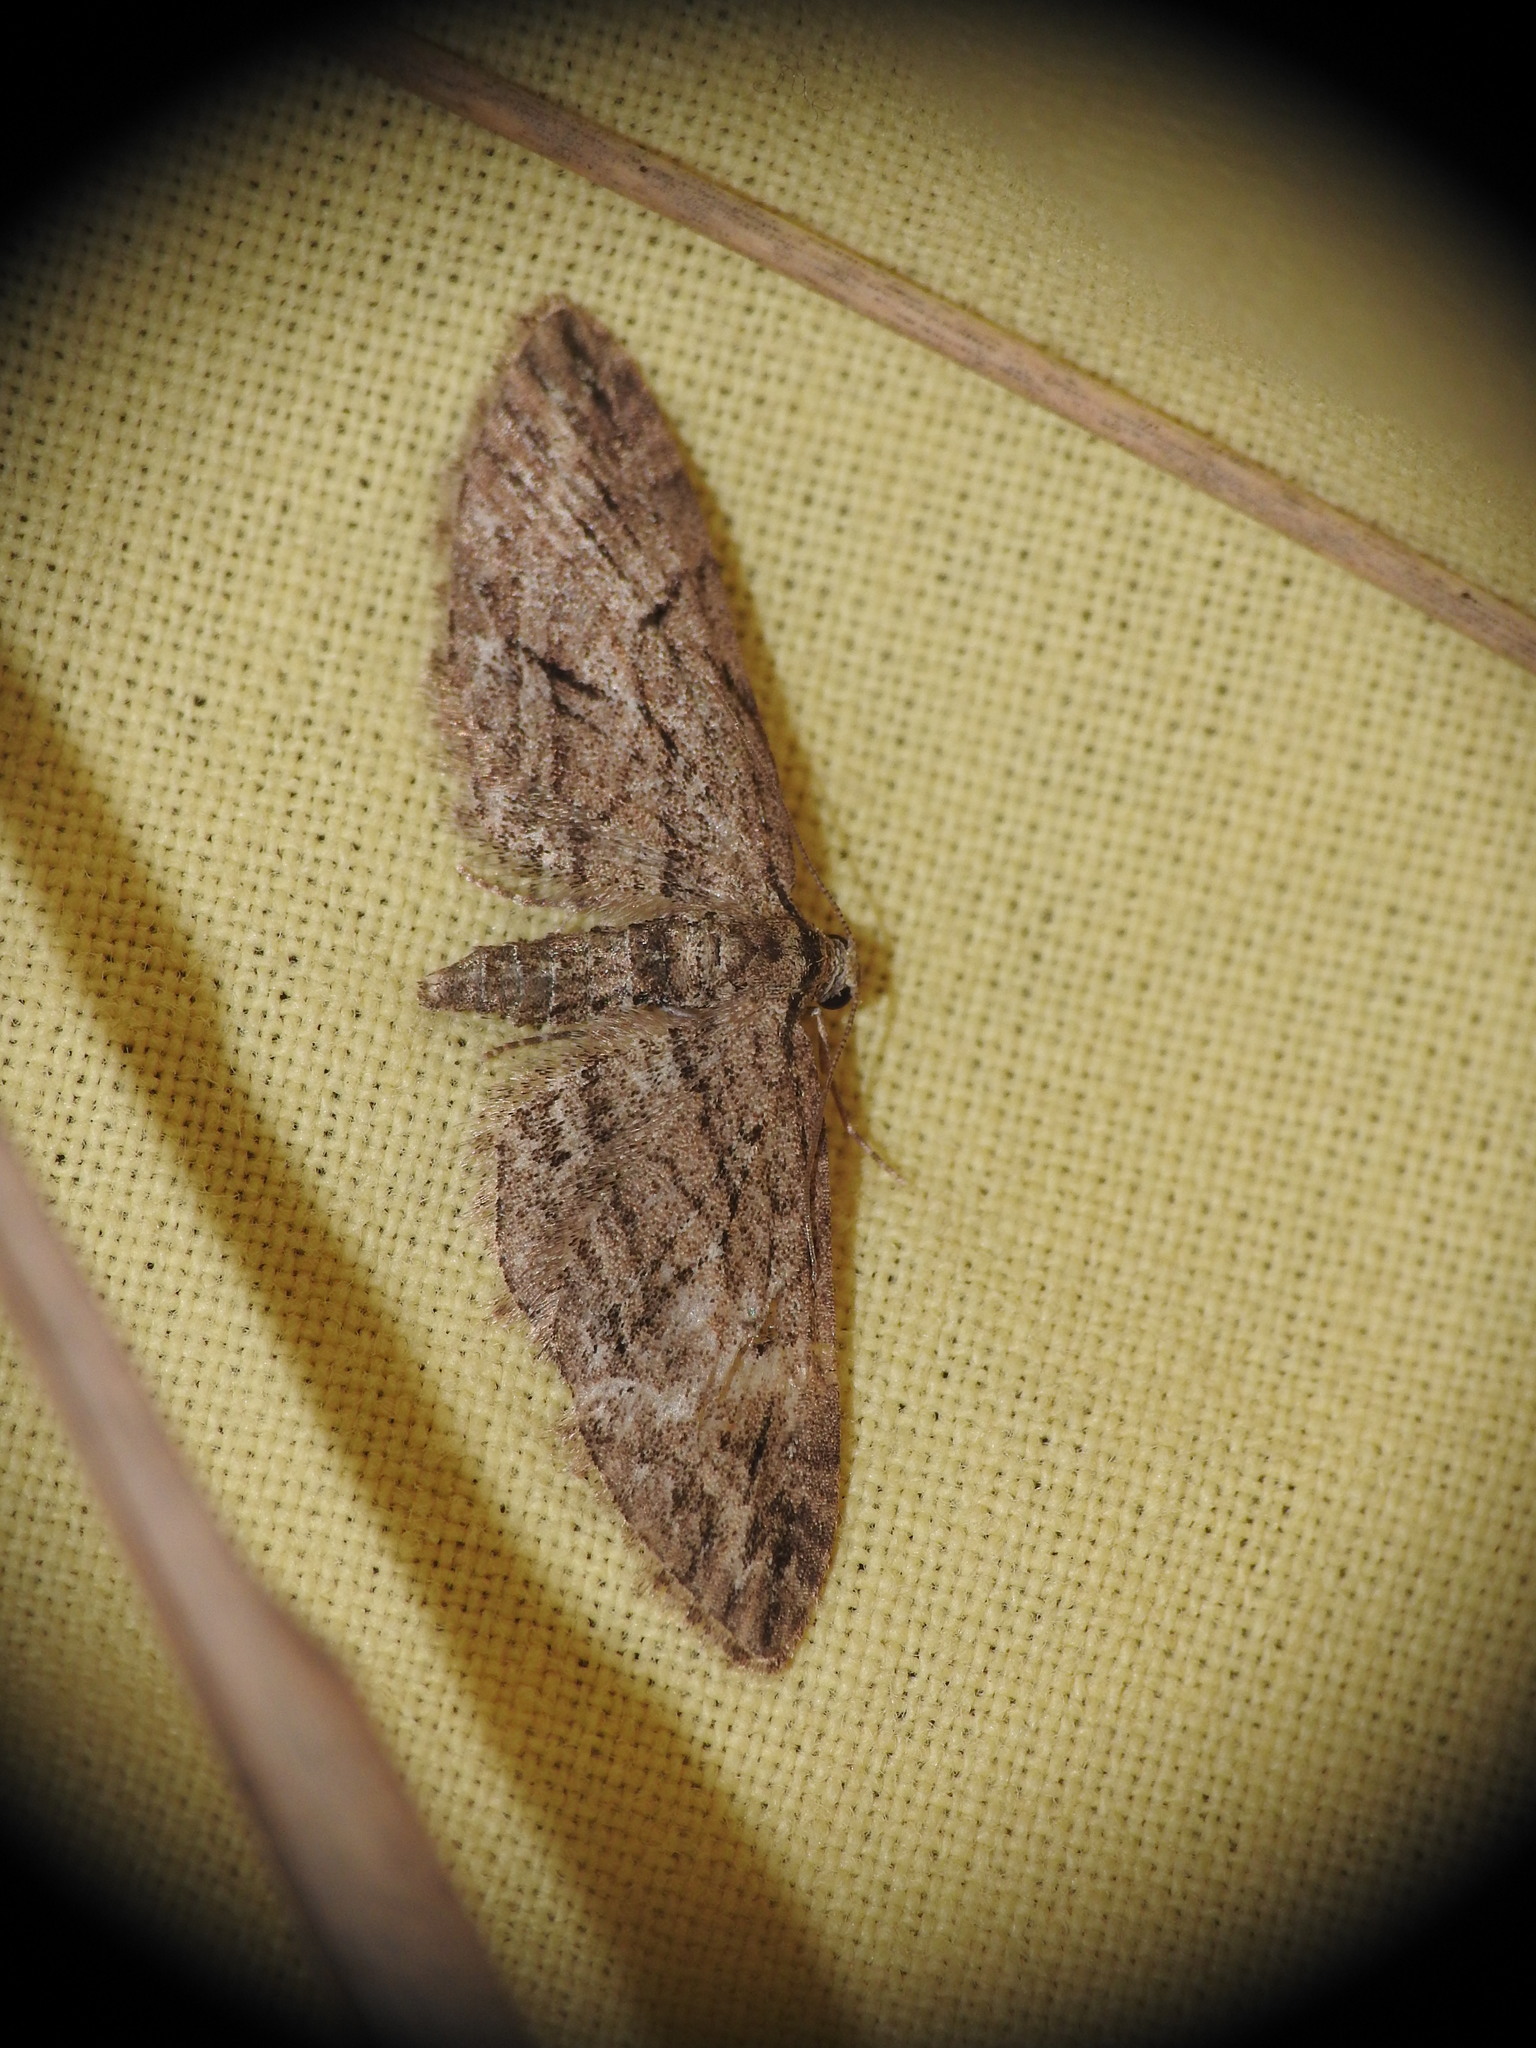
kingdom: Animalia
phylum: Arthropoda
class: Insecta
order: Lepidoptera
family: Geometridae
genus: Eupithecia
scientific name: Eupithecia oxycedrata
